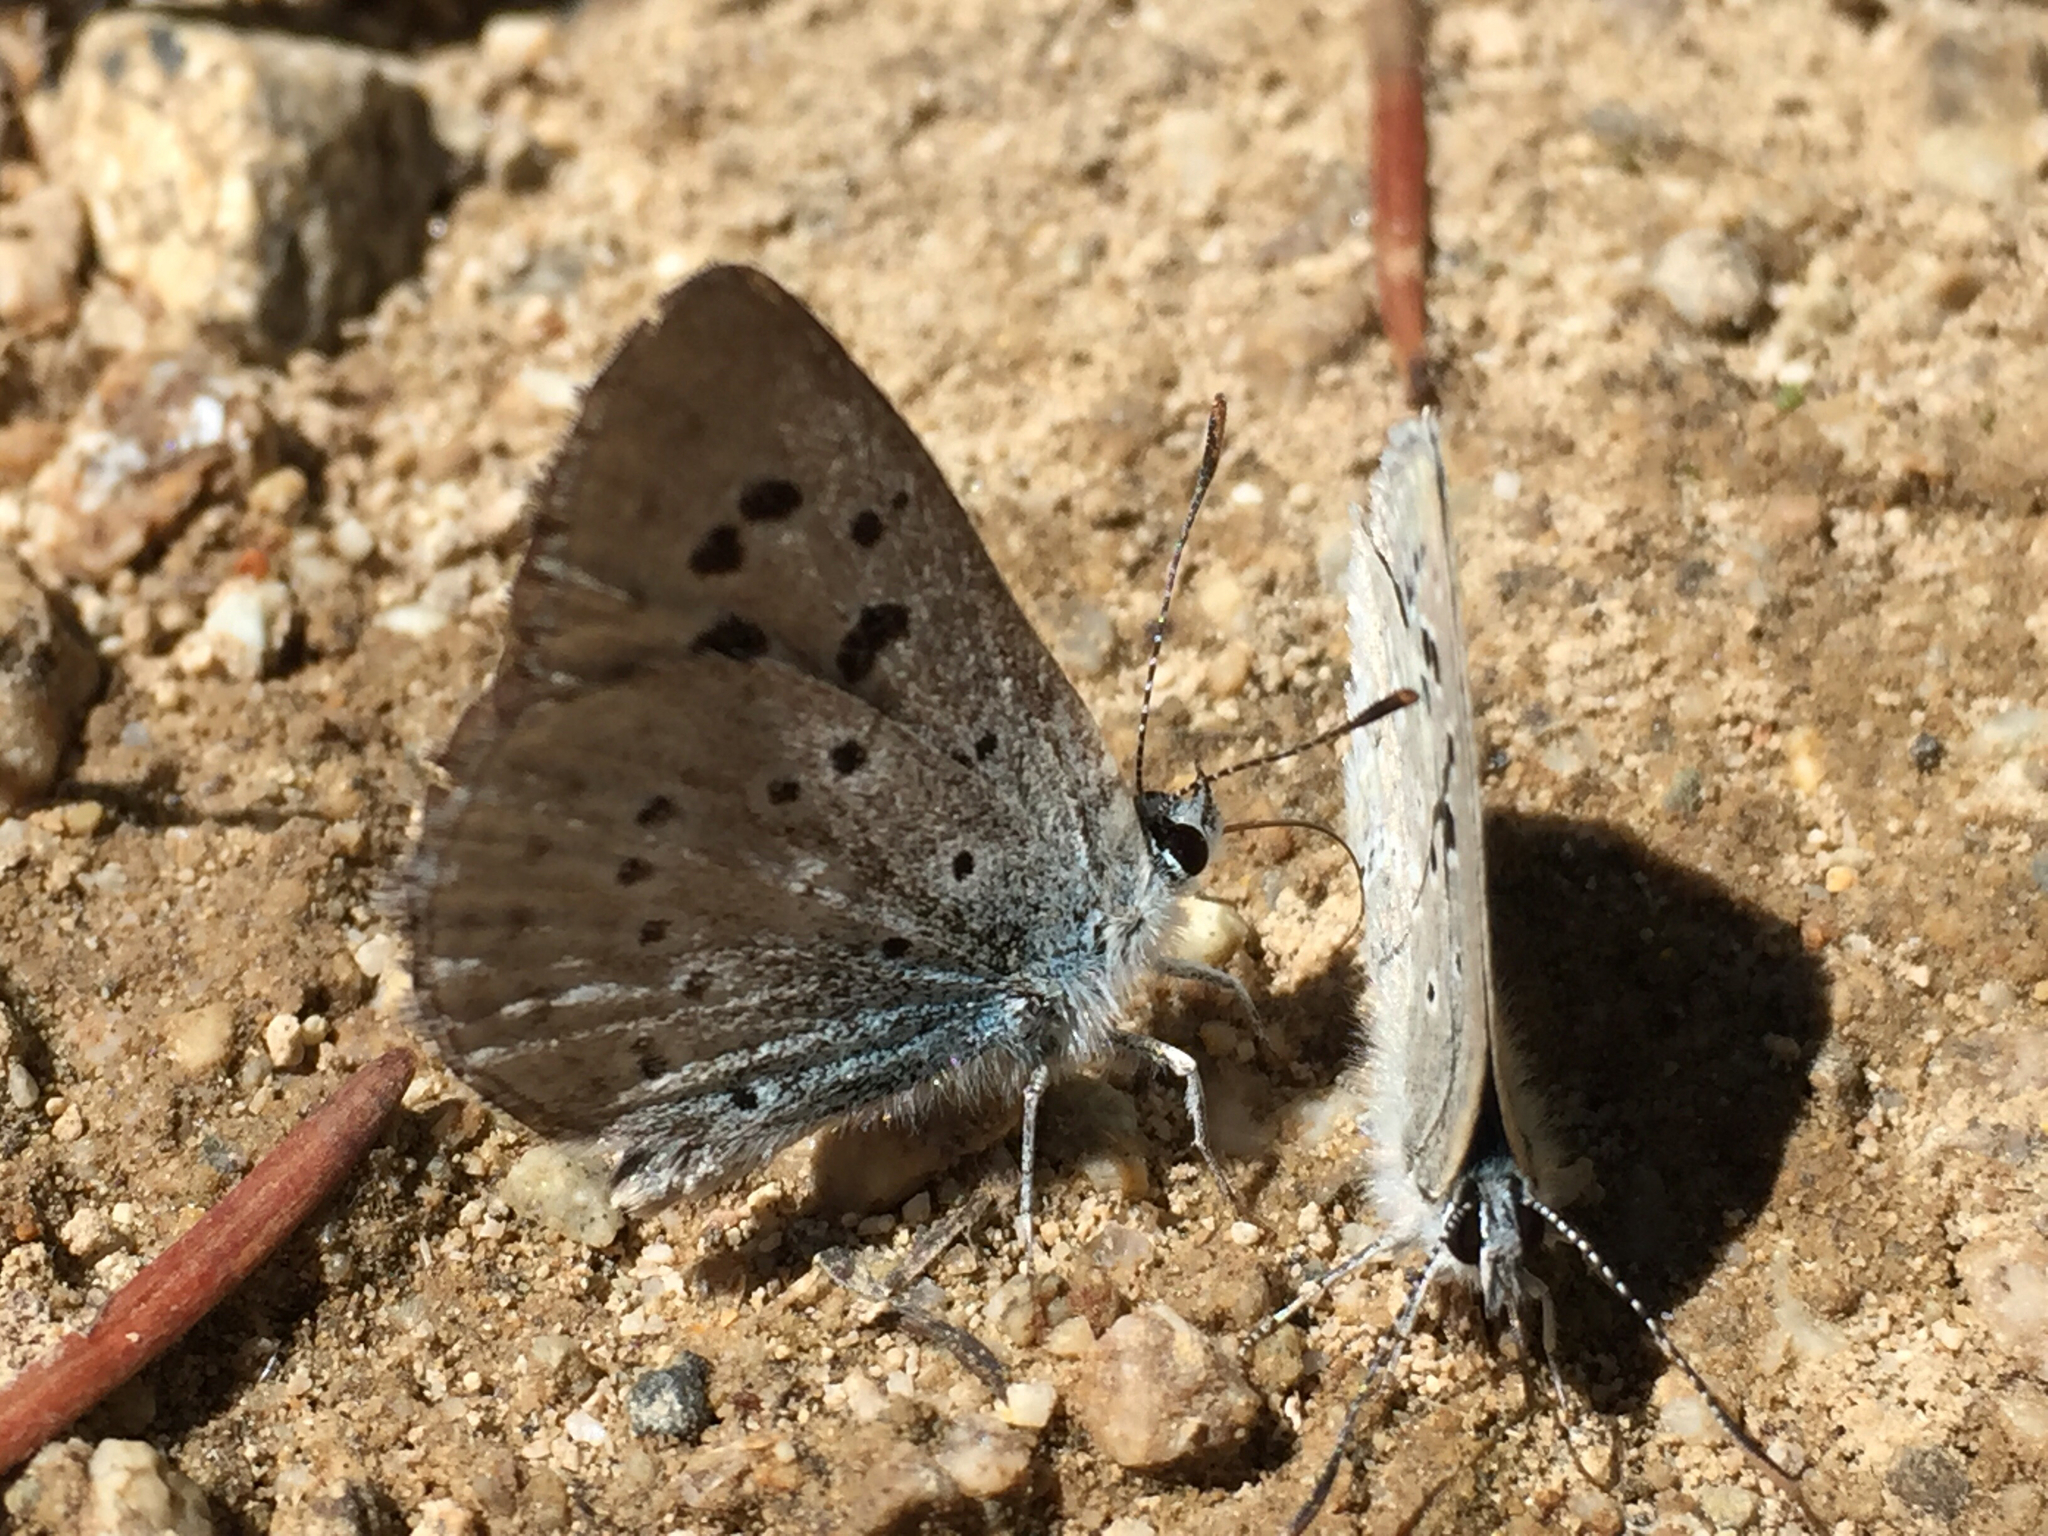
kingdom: Animalia
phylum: Arthropoda
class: Insecta
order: Lepidoptera
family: Lycaenidae
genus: Icaricia
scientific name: Icaricia icarioides
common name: Boisduval's blue
